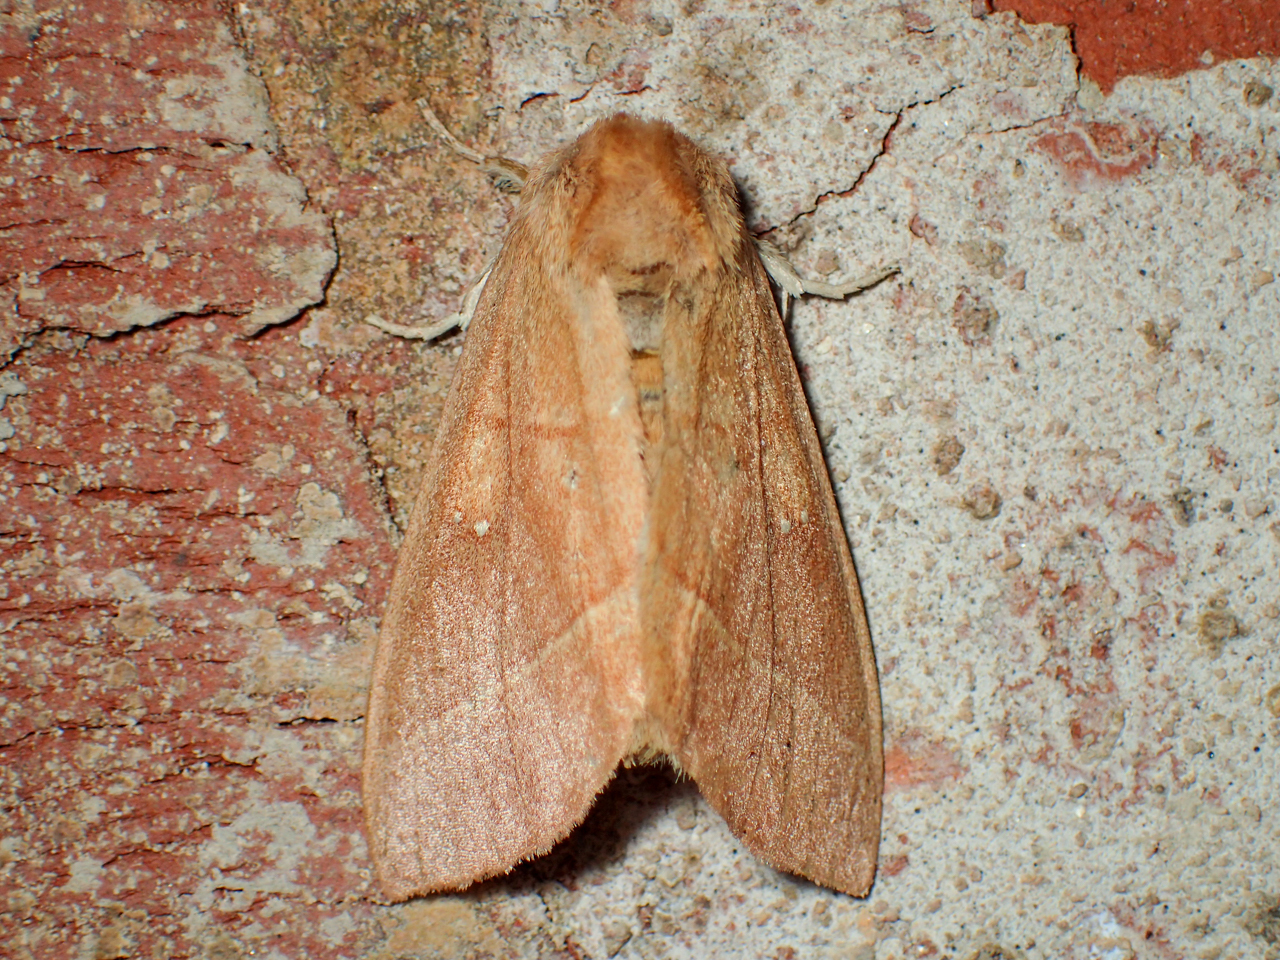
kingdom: Animalia
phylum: Arthropoda
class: Insecta
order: Lepidoptera
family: Notodontidae
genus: Nadata
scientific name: Nadata gibbosa
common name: White-dotted prominent
